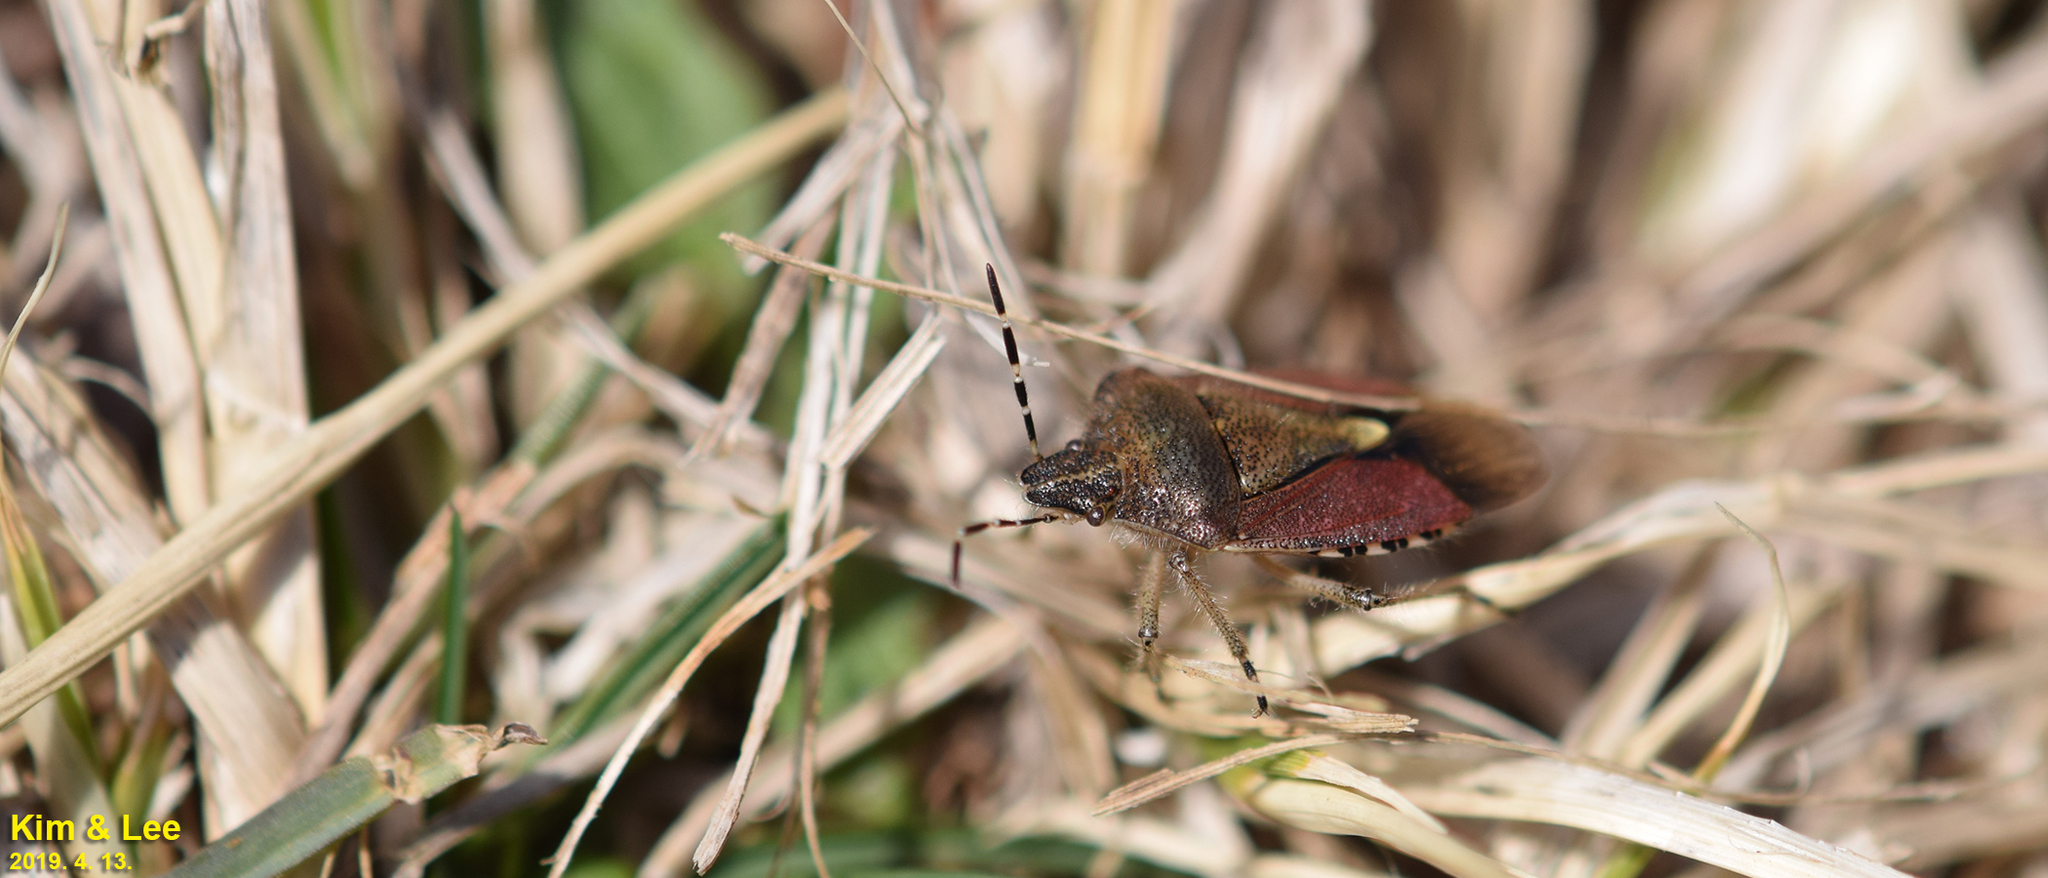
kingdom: Animalia
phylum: Arthropoda
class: Insecta
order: Hemiptera
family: Pentatomidae
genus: Dolycoris
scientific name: Dolycoris baccarum
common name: Sloe bug
